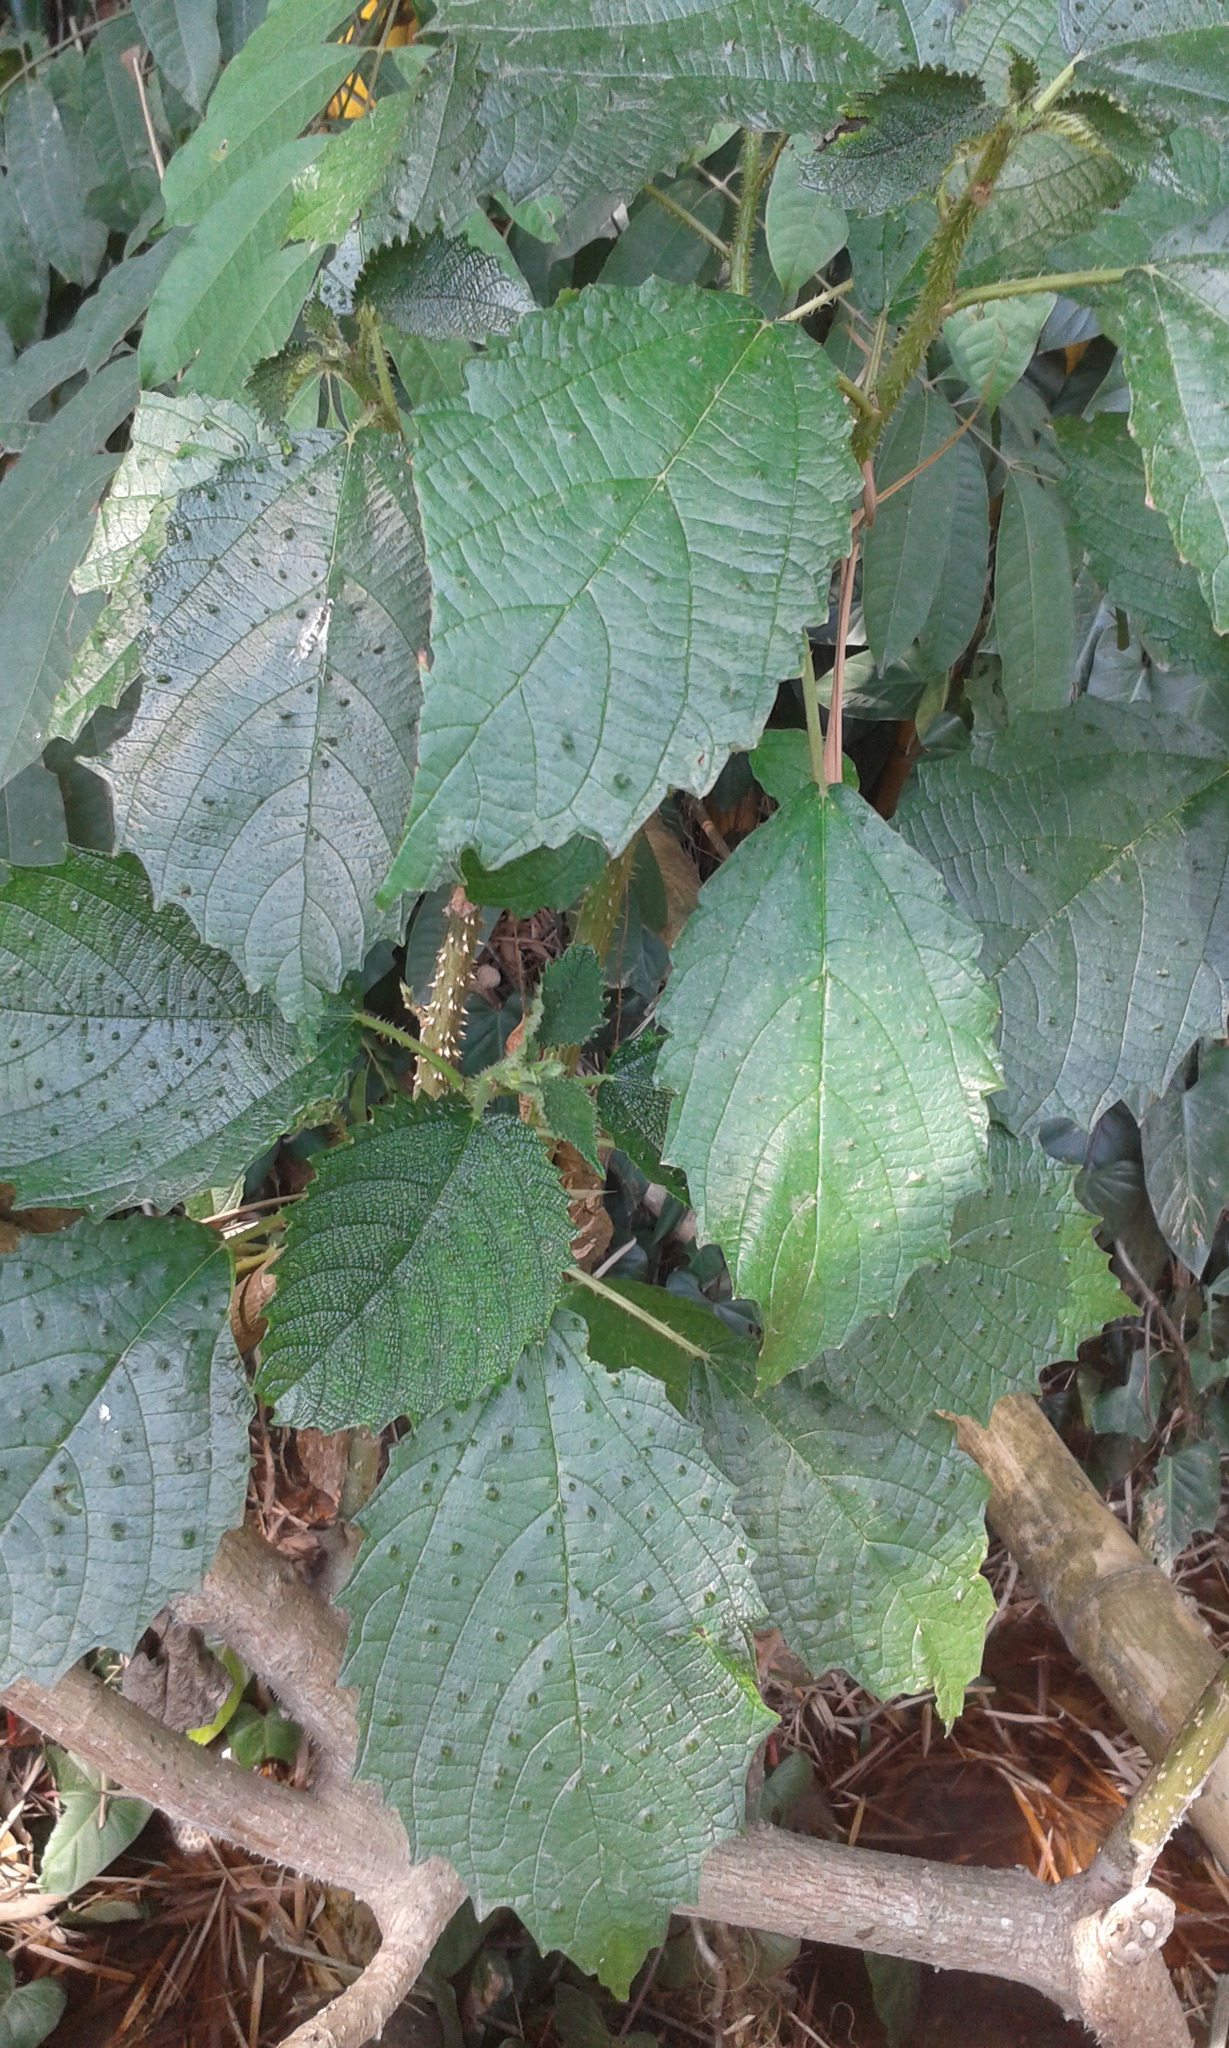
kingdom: Plantae
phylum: Tracheophyta
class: Magnoliopsida
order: Rosales
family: Urticaceae
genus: Urera
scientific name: Urera baccifera
